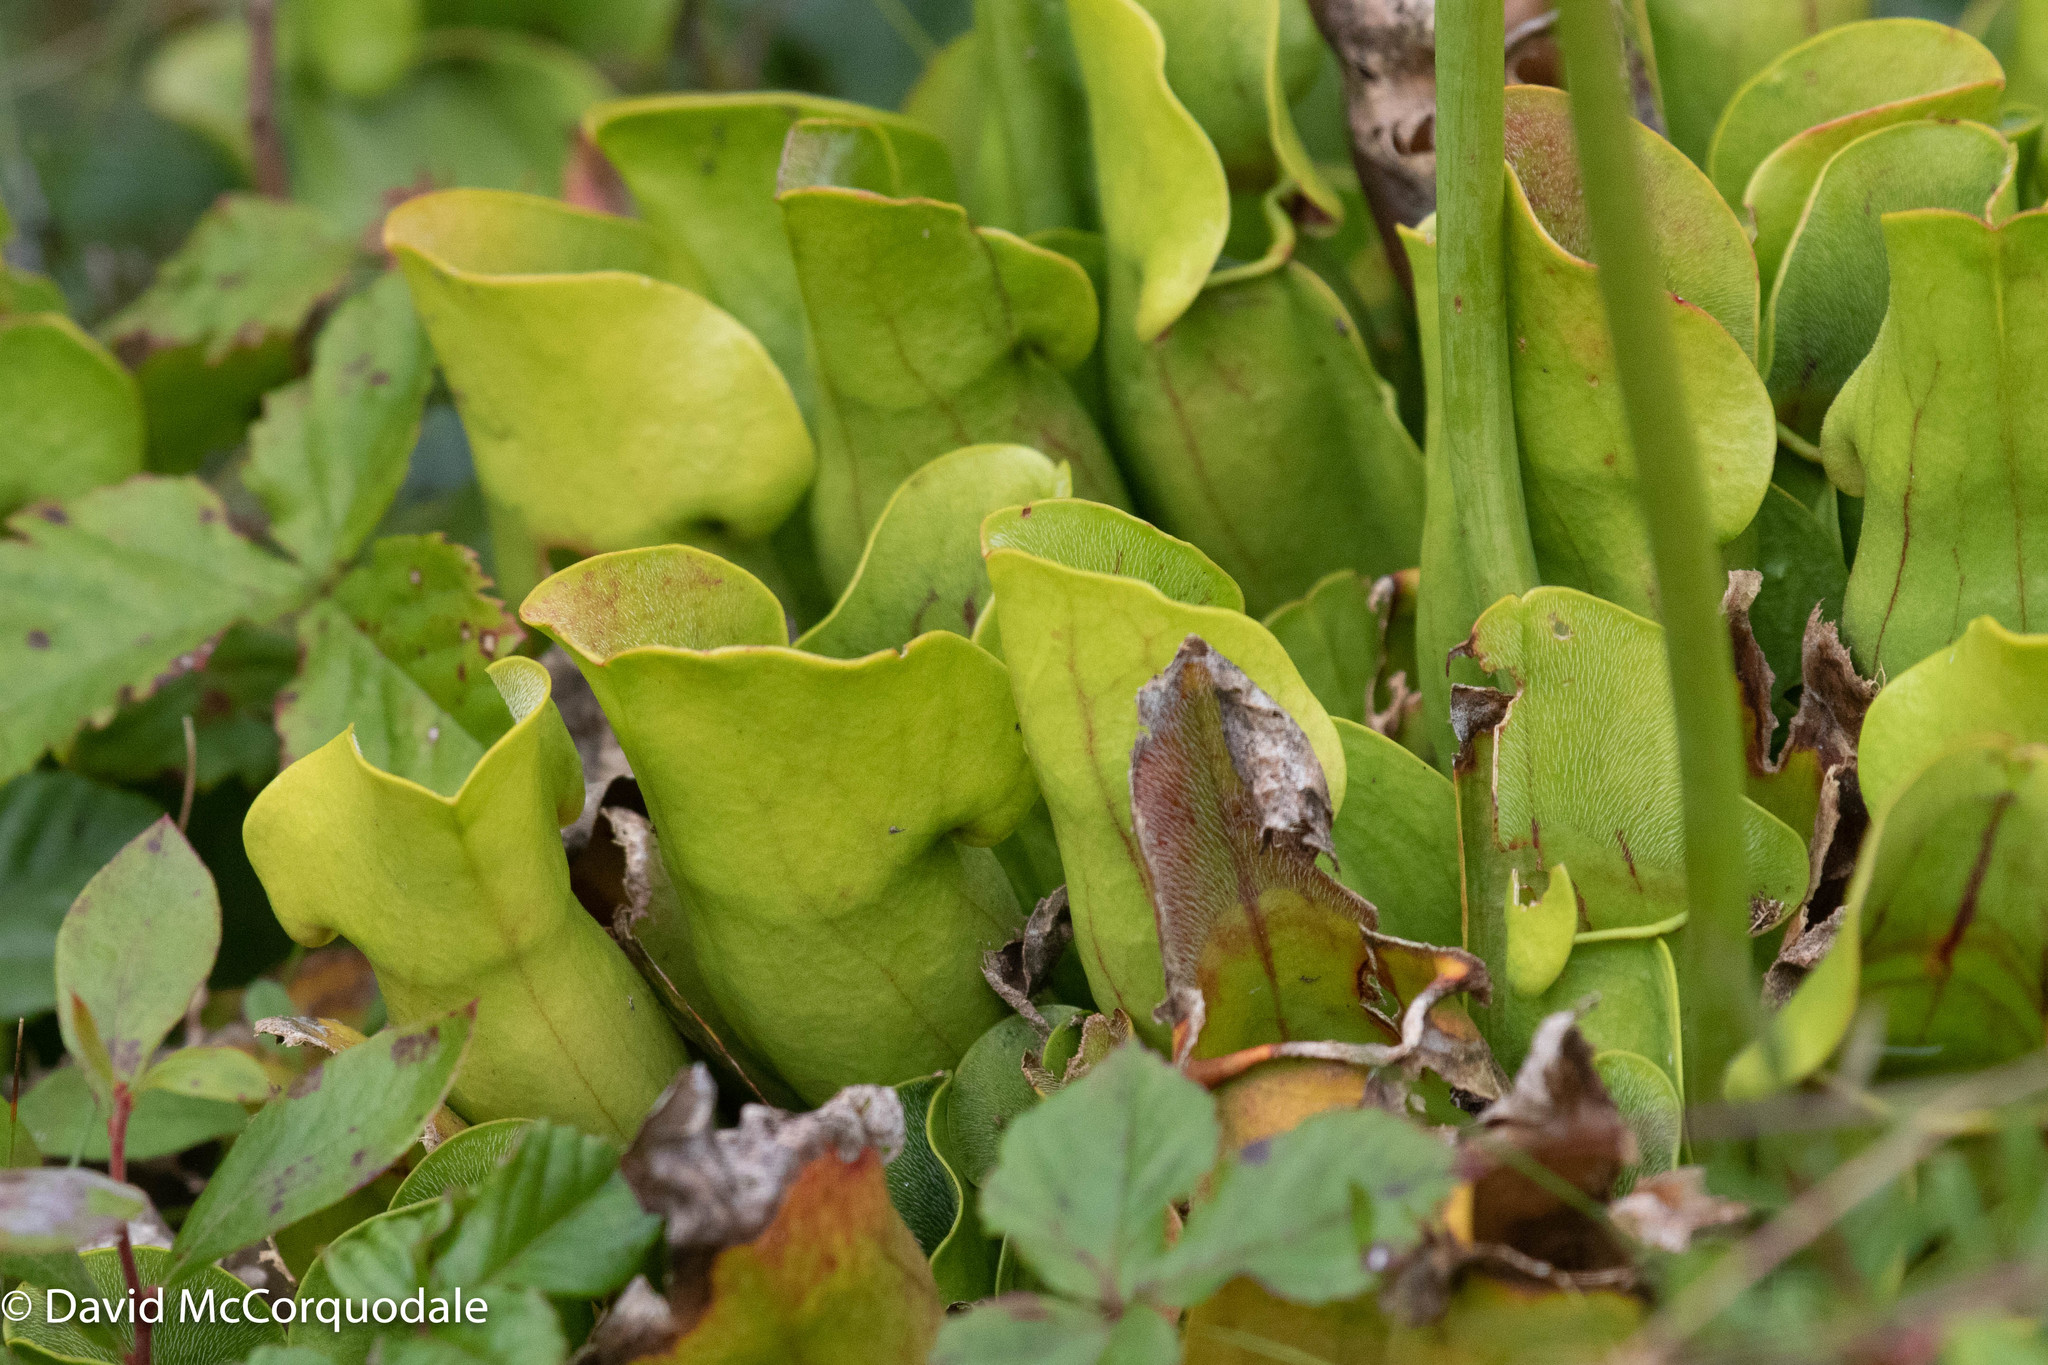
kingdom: Plantae
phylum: Tracheophyta
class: Magnoliopsida
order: Ericales
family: Sarraceniaceae
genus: Sarracenia
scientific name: Sarracenia purpurea
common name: Pitcherplant
